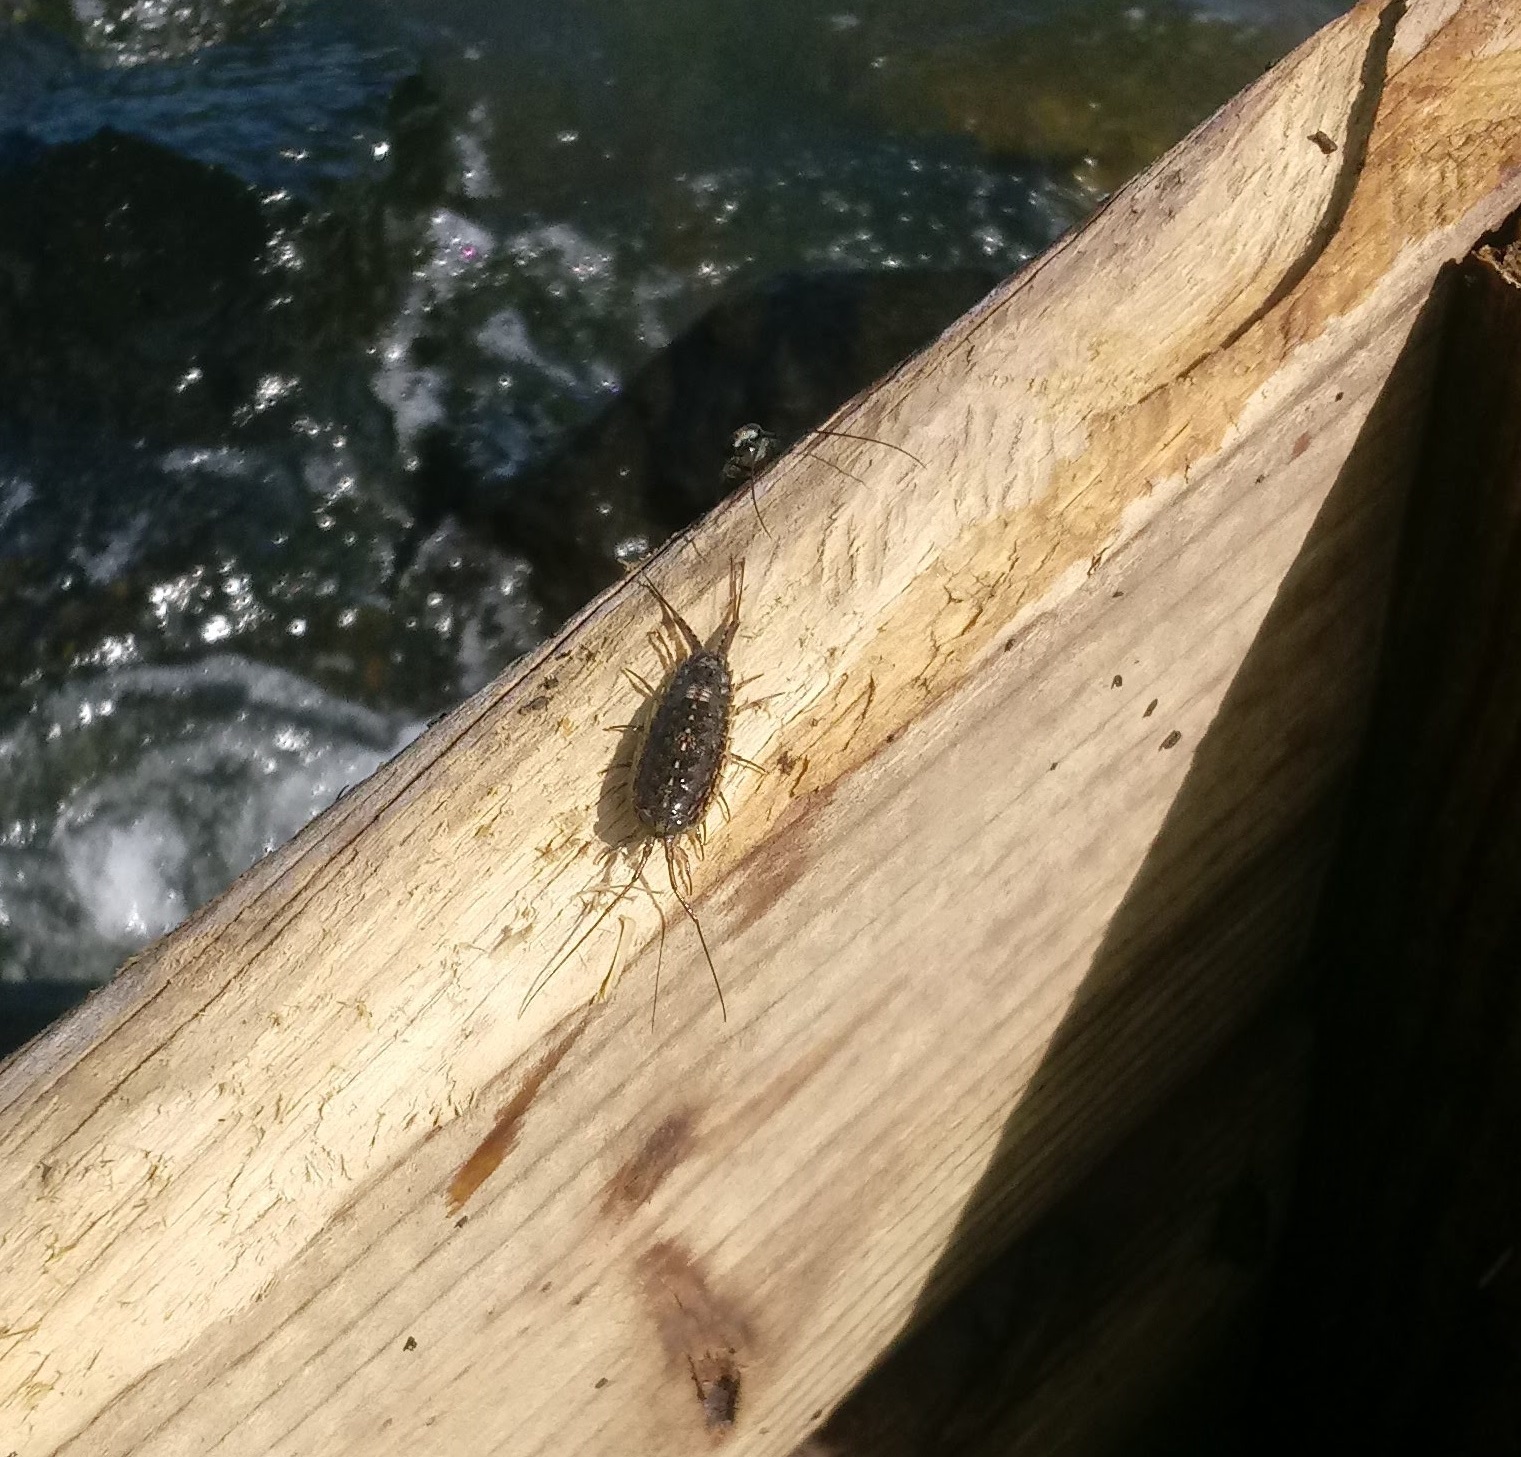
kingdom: Animalia
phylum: Arthropoda
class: Malacostraca
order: Isopoda
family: Ligiidae
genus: Ligia
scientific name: Ligia exotica
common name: Wharf roach
